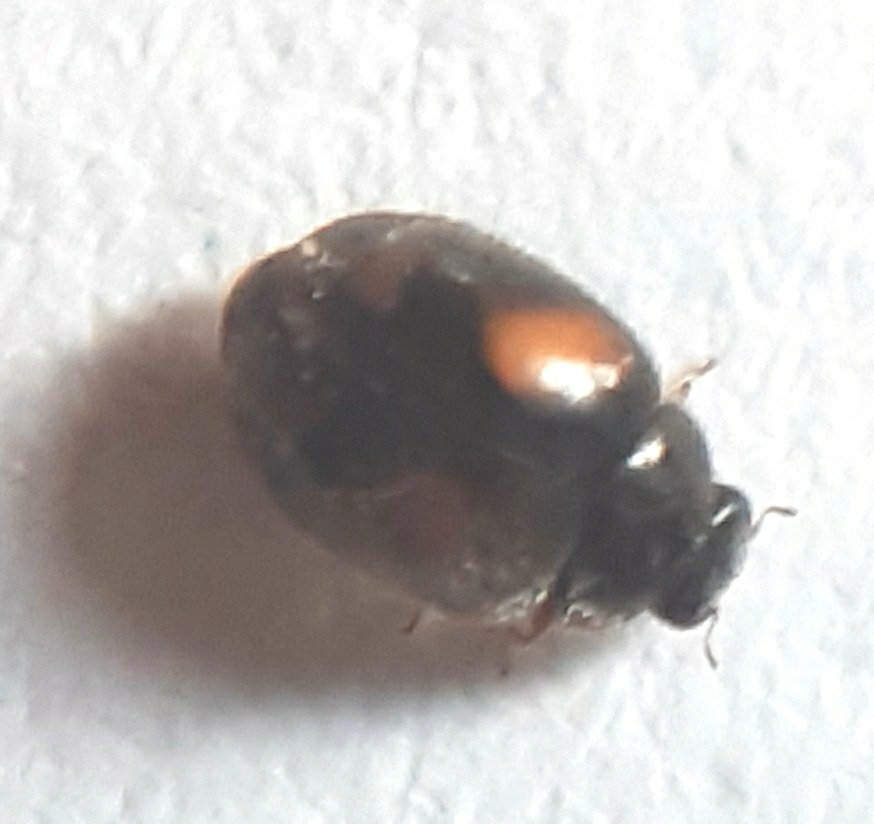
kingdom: Animalia
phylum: Arthropoda
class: Insecta
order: Coleoptera
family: Coccinellidae
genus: Nephus
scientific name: Nephus quadrimaculatus
